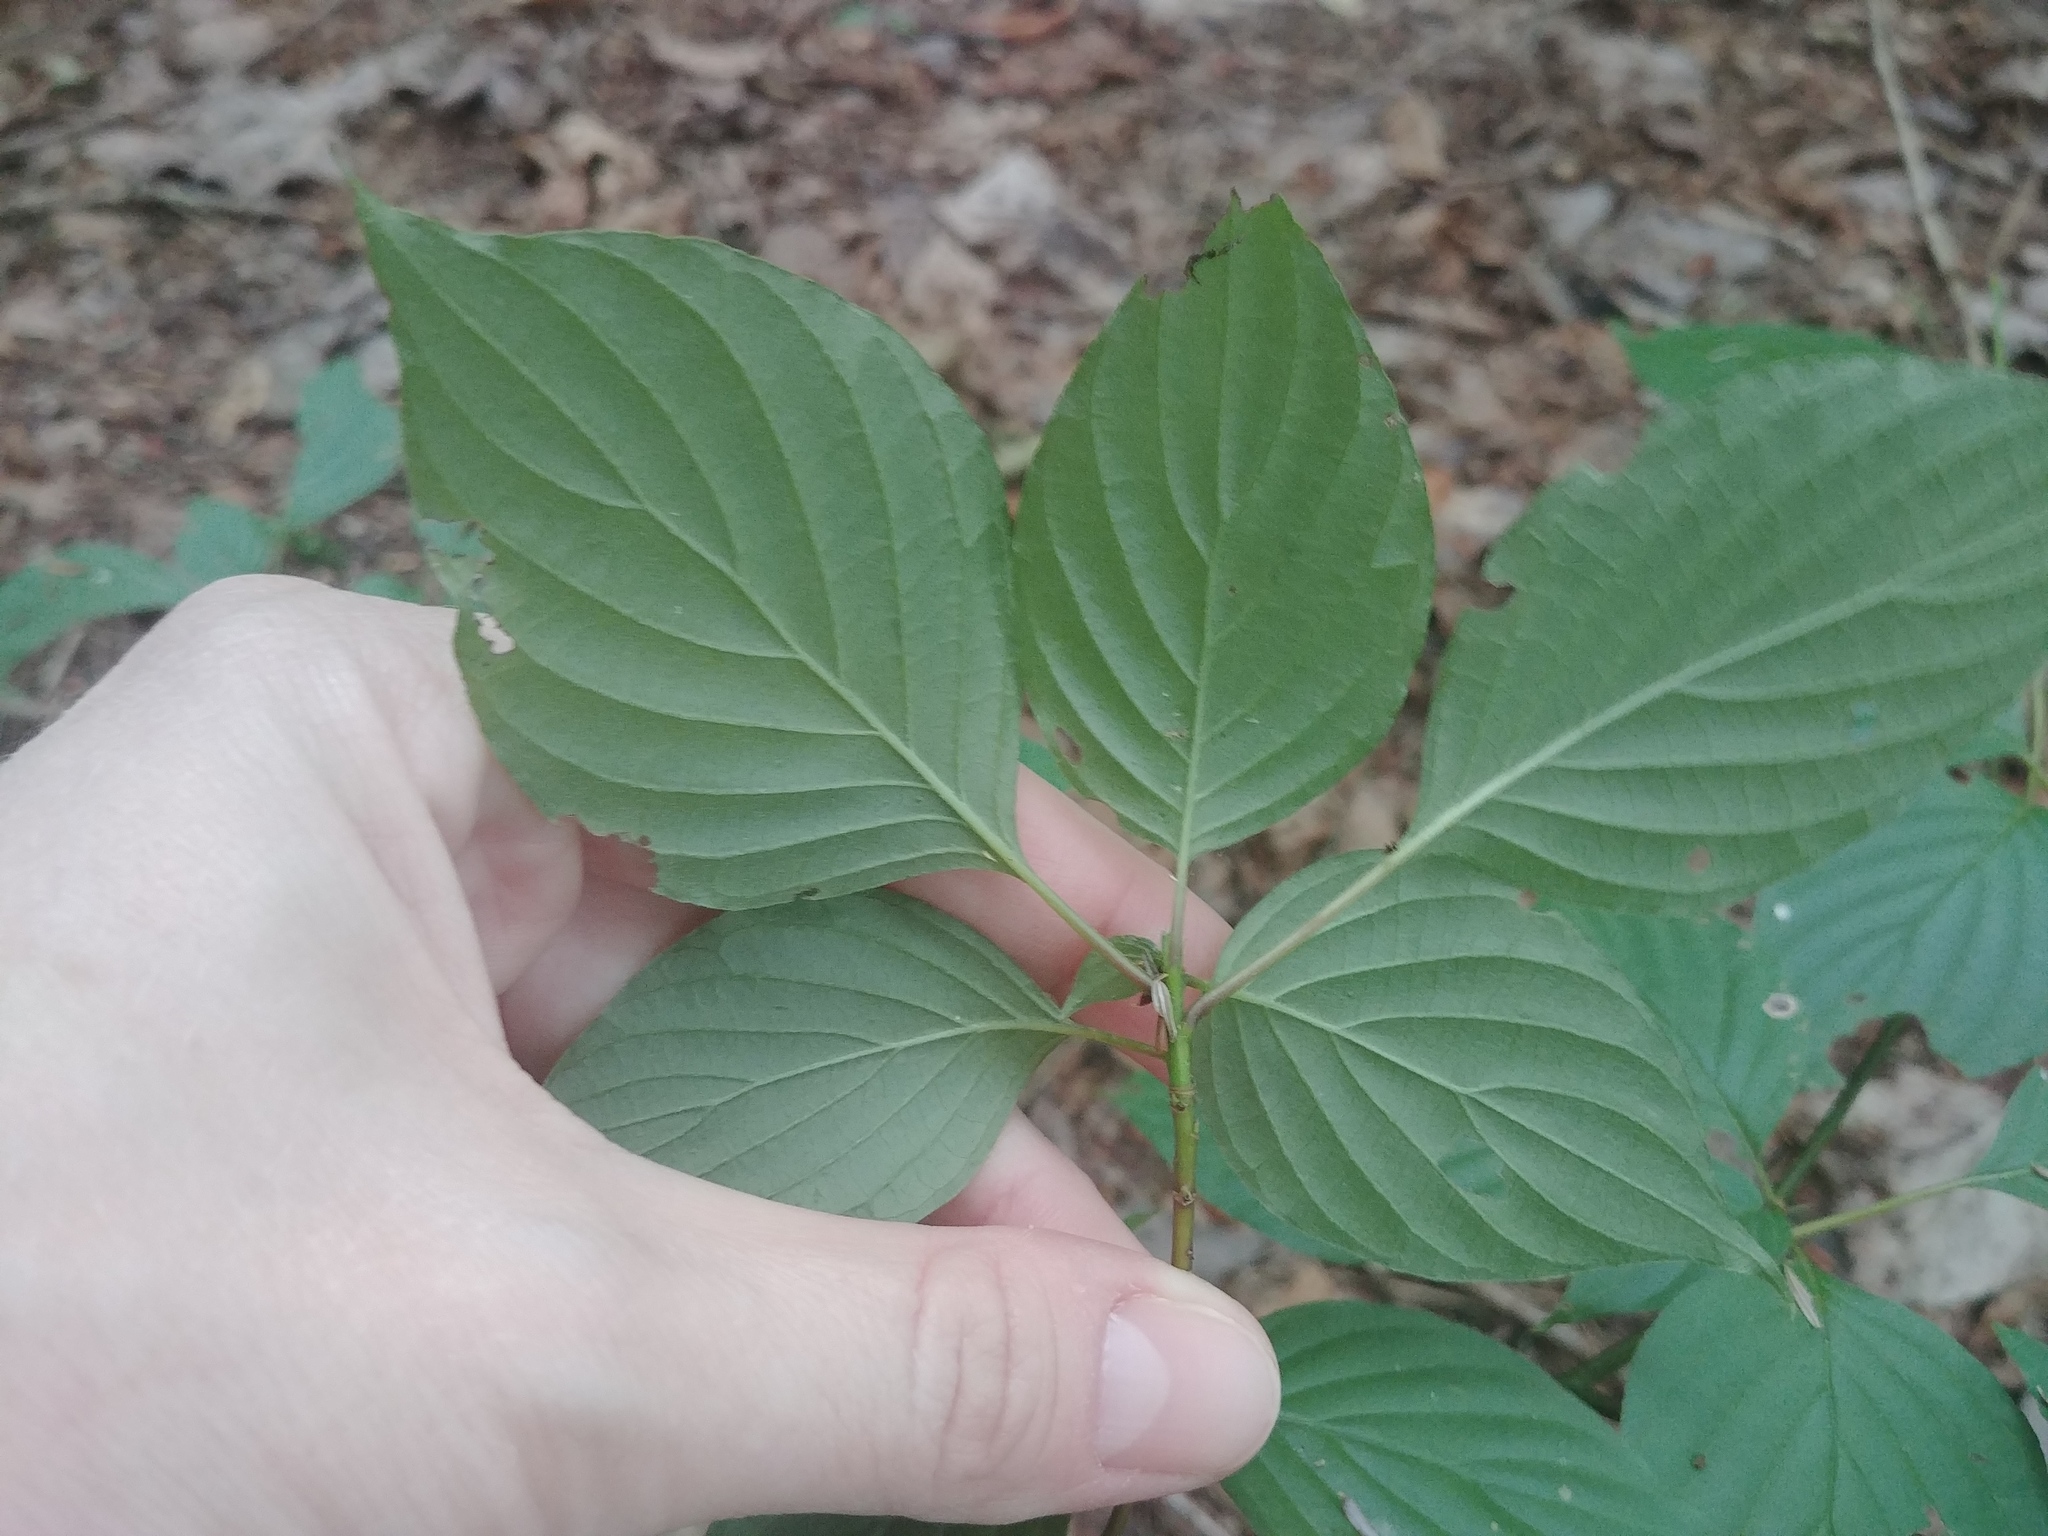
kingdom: Plantae
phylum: Tracheophyta
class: Magnoliopsida
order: Cornales
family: Cornaceae
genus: Cornus
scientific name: Cornus alternifolia
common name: Pagoda dogwood
